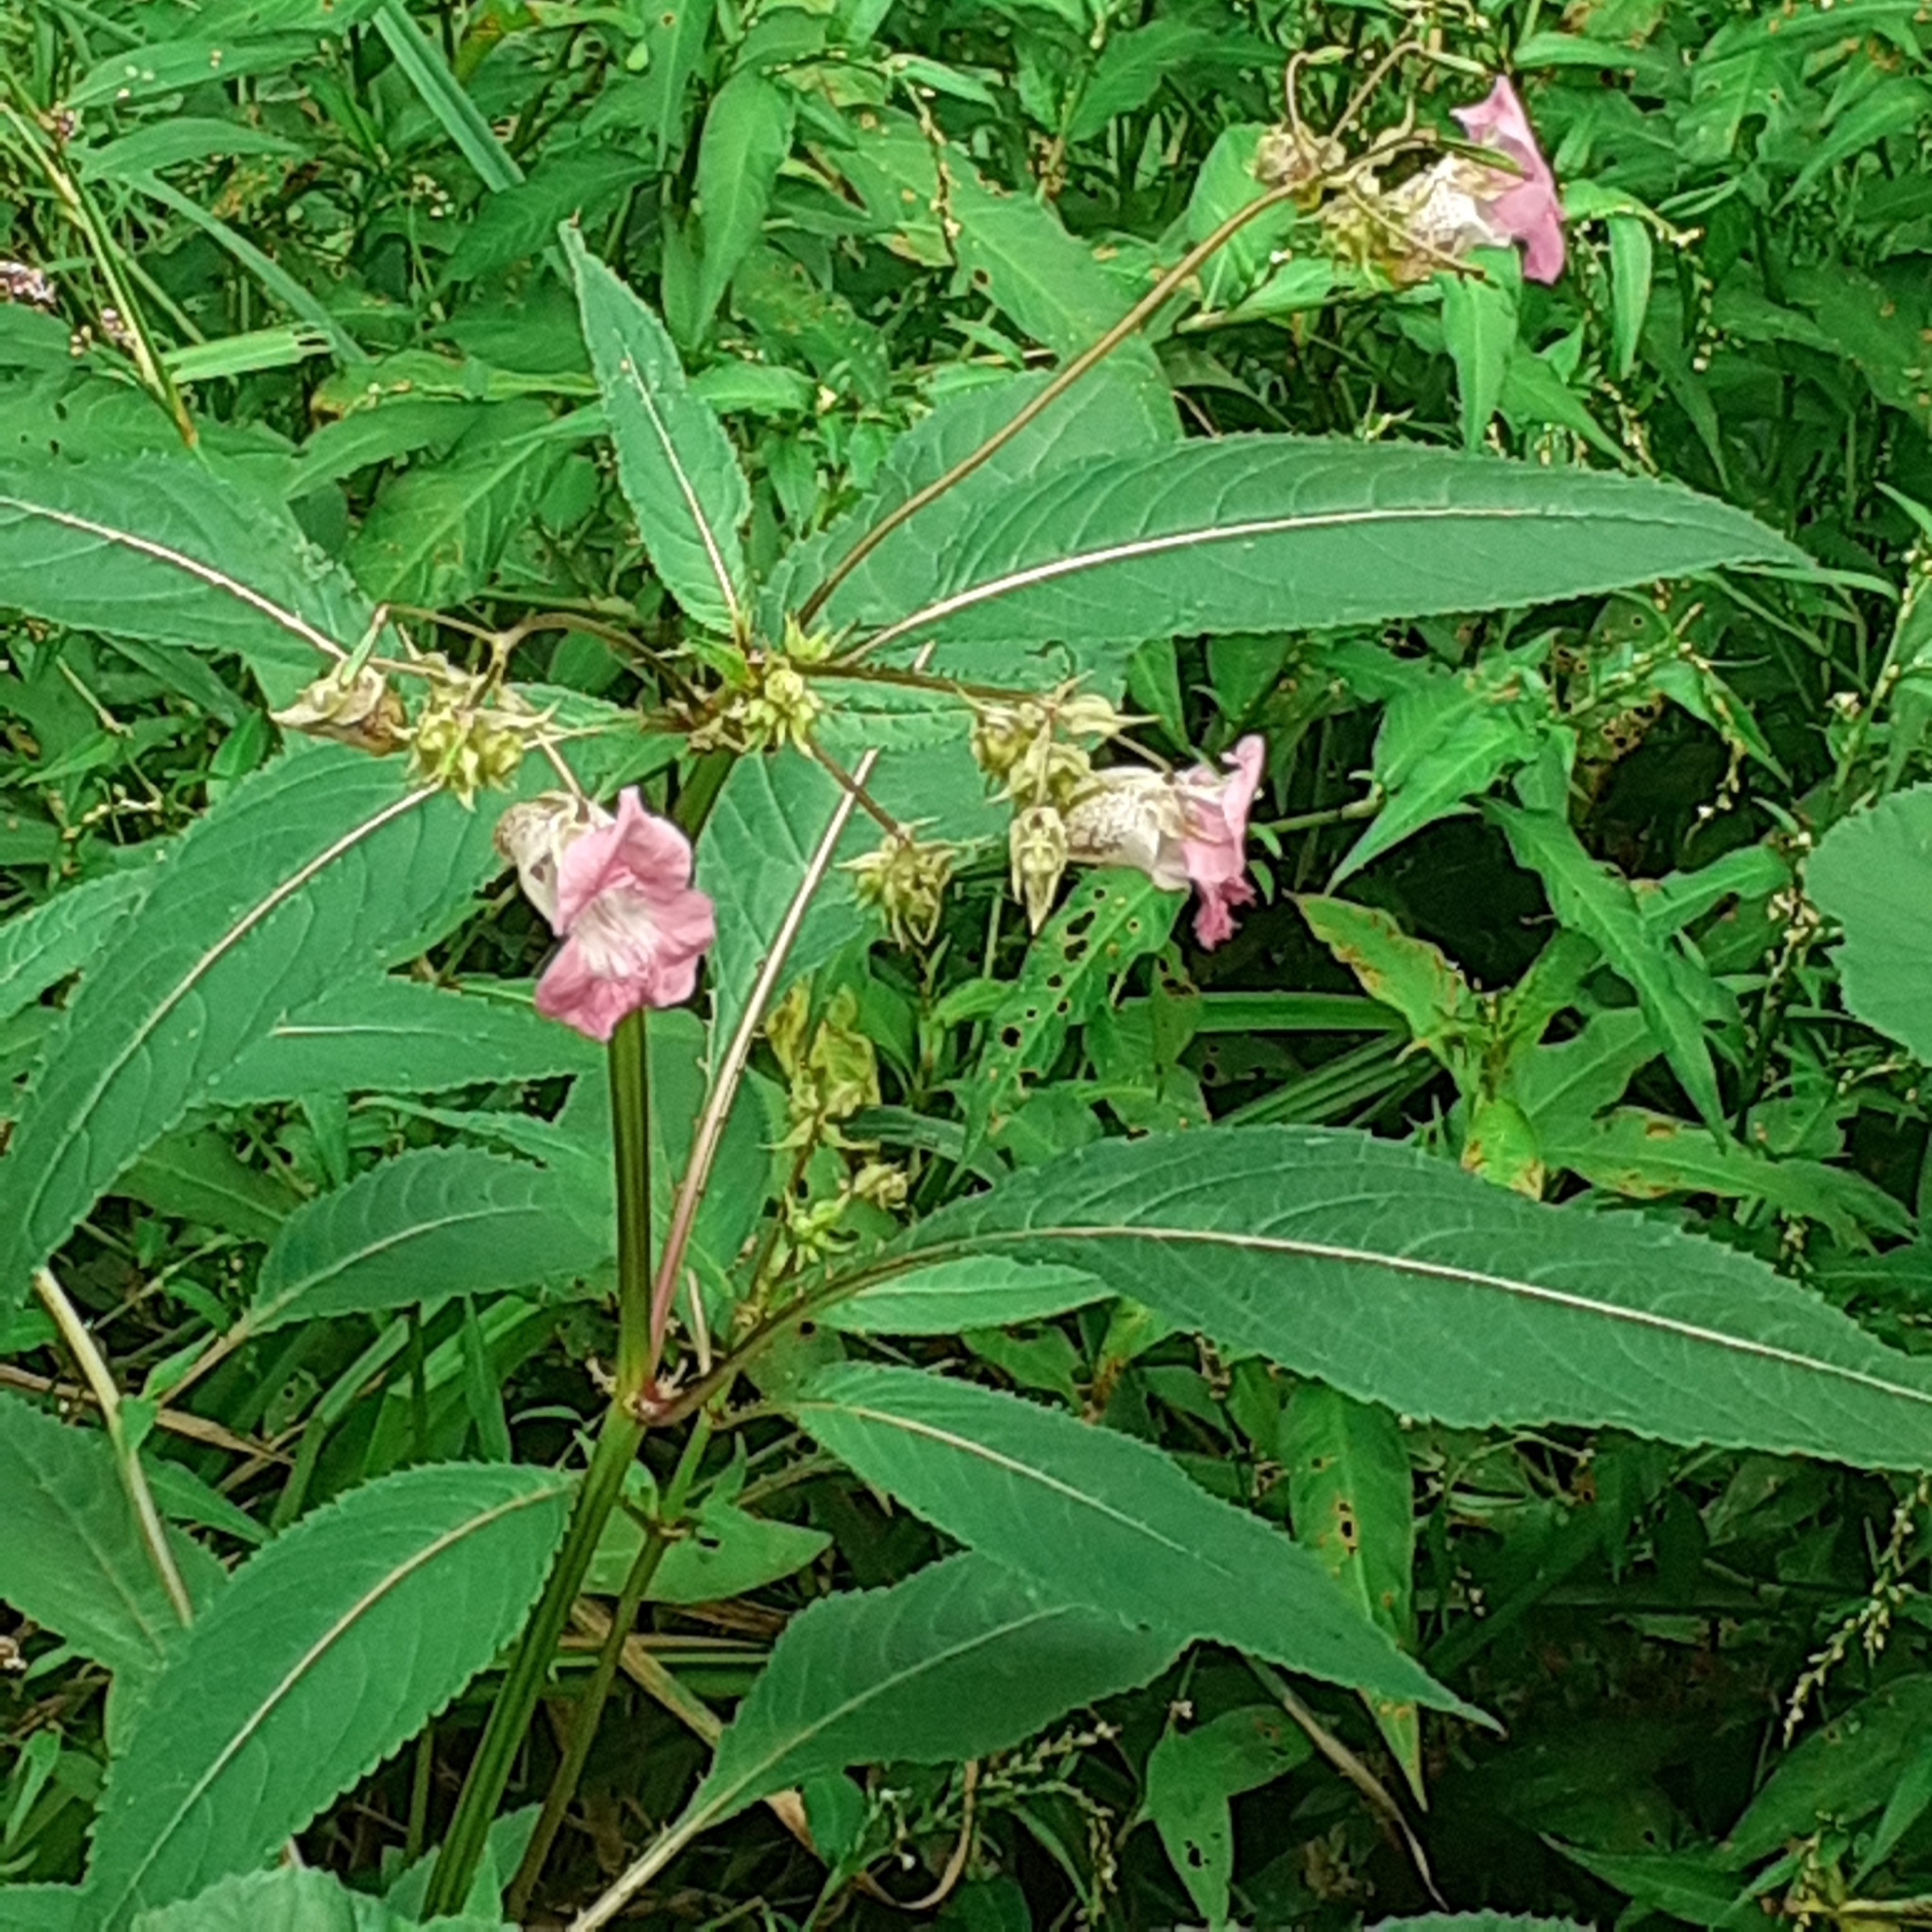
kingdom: Plantae
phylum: Tracheophyta
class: Magnoliopsida
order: Ericales
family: Balsaminaceae
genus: Impatiens
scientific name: Impatiens glandulifera
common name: Himalayan balsam
